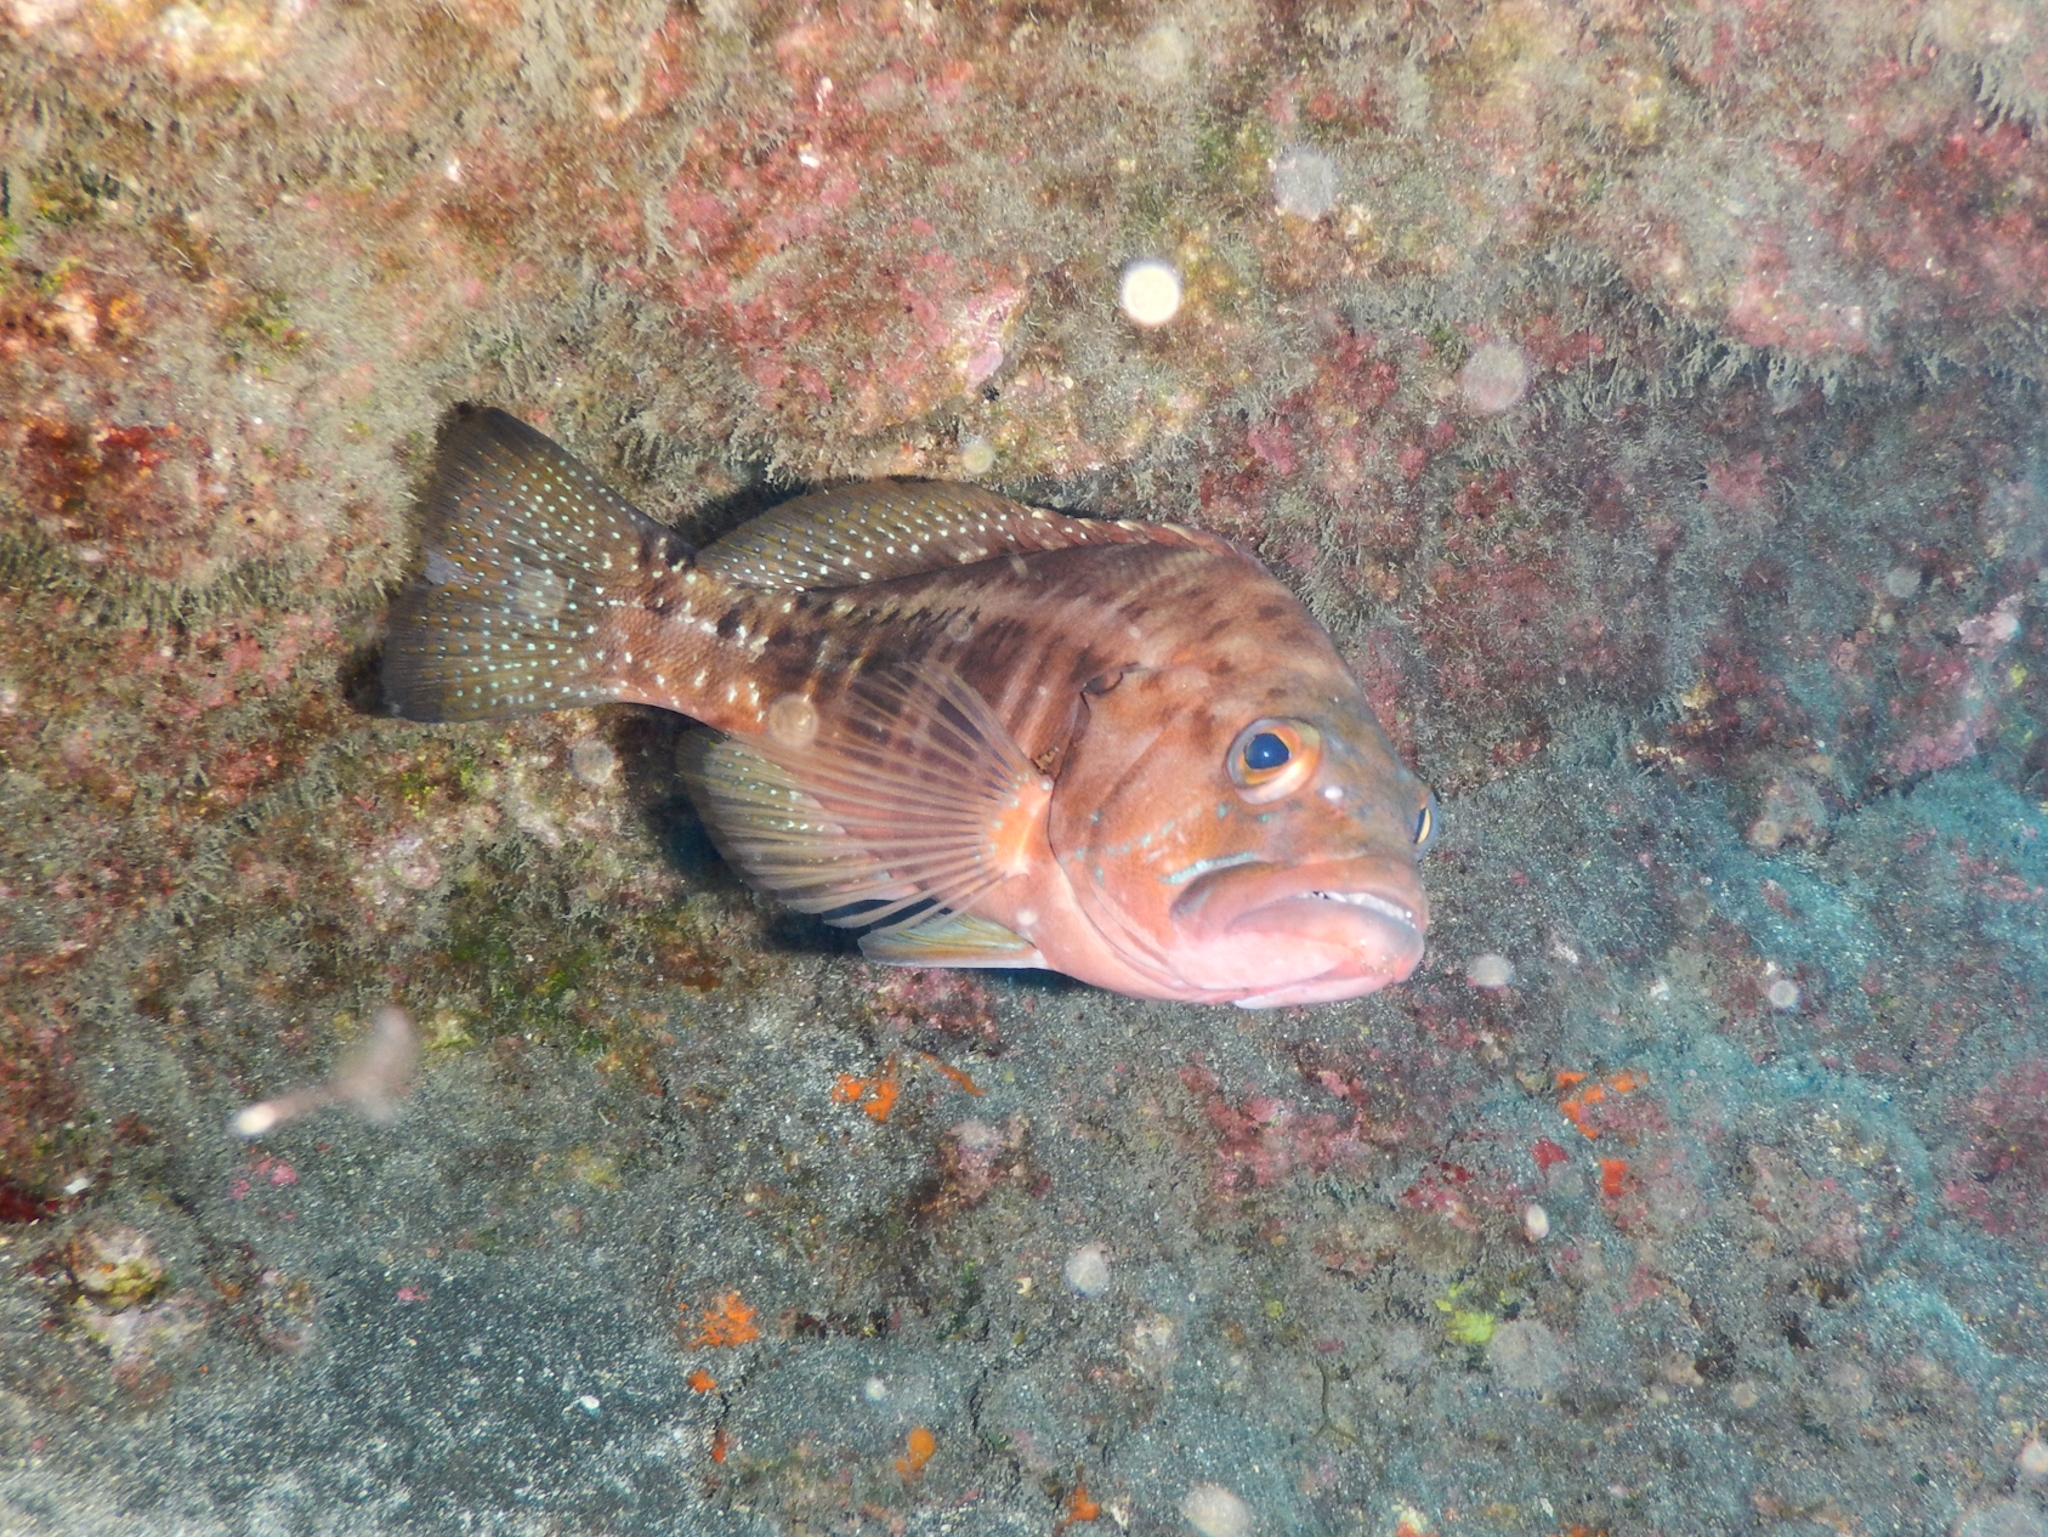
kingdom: Animalia
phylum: Chordata
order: Perciformes
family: Serranidae
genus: Serranus
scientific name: Serranus atricauda
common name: Blacktail comber
